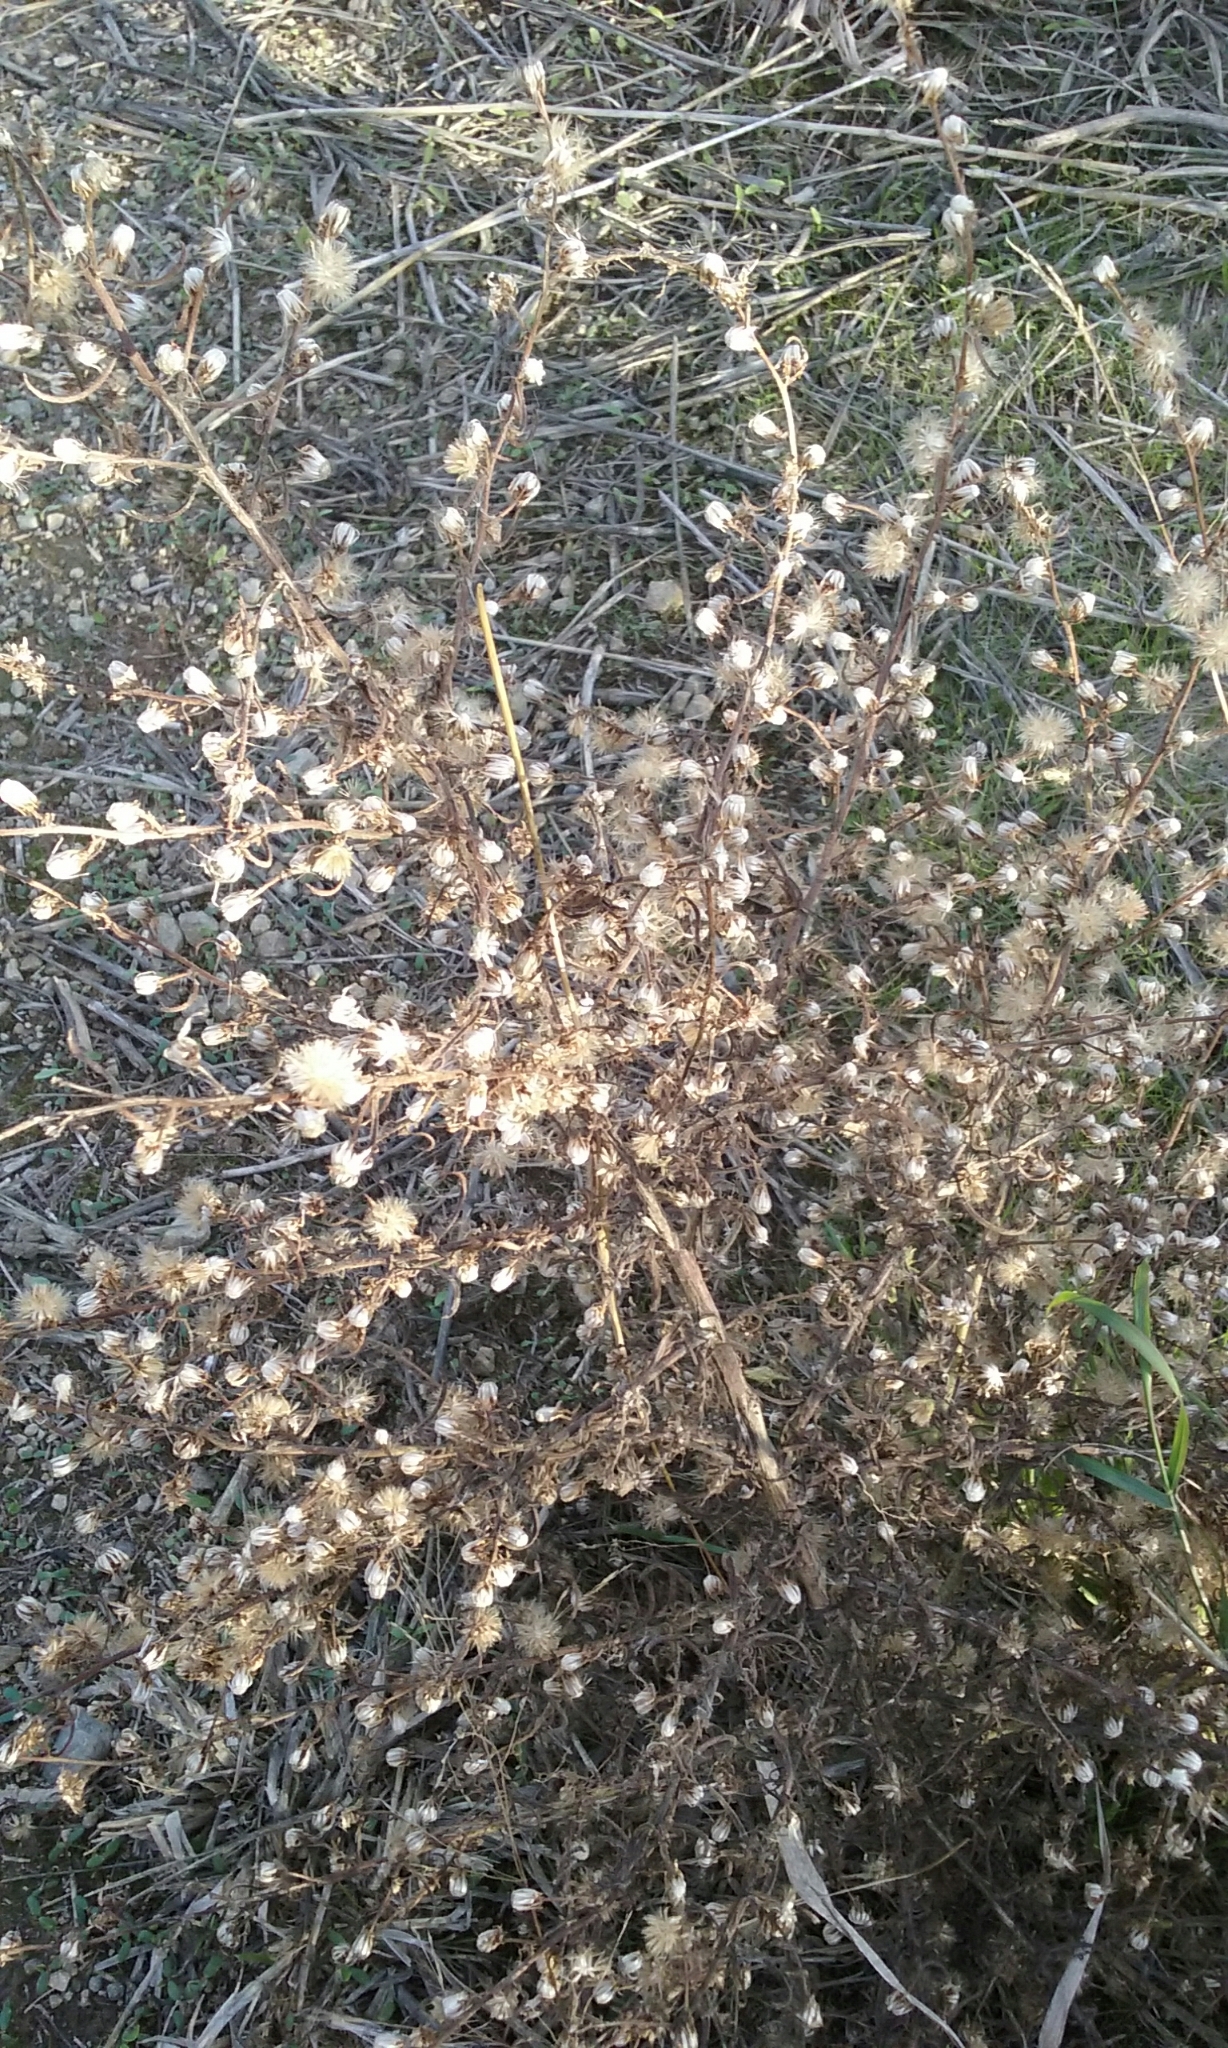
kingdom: Plantae
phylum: Tracheophyta
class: Magnoliopsida
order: Asterales
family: Asteraceae
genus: Dittrichia
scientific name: Dittrichia graveolens
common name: Stinking fleabane
